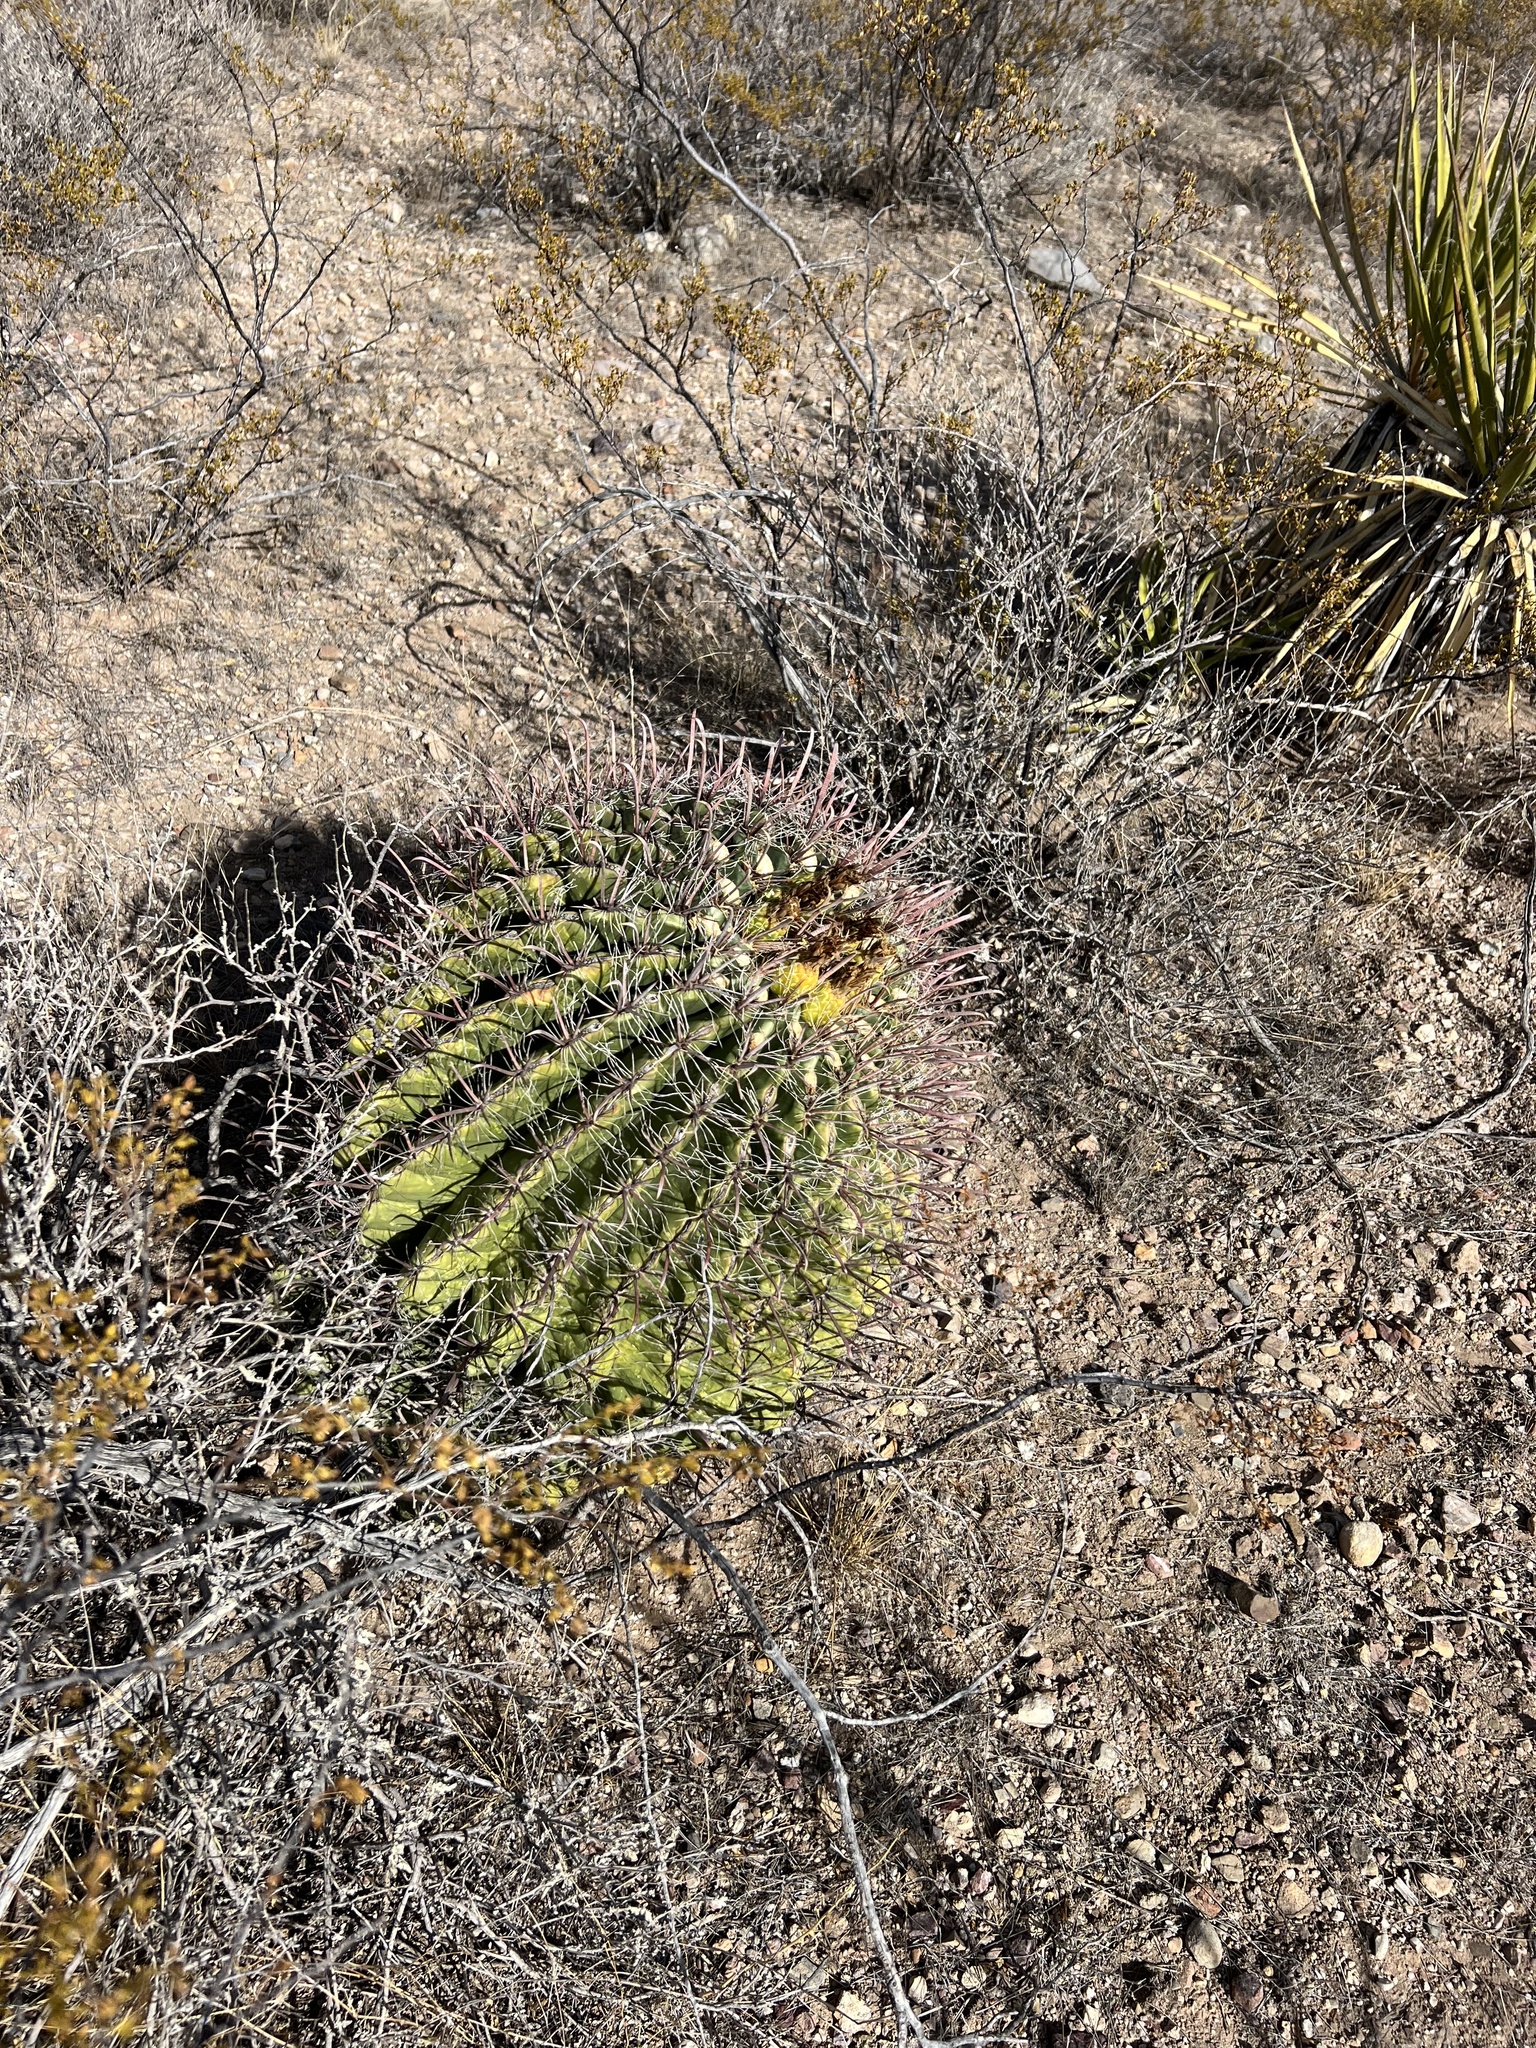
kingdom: Plantae
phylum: Tracheophyta
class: Magnoliopsida
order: Caryophyllales
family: Cactaceae
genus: Ferocactus
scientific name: Ferocactus wislizeni
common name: Candy barrel cactus
